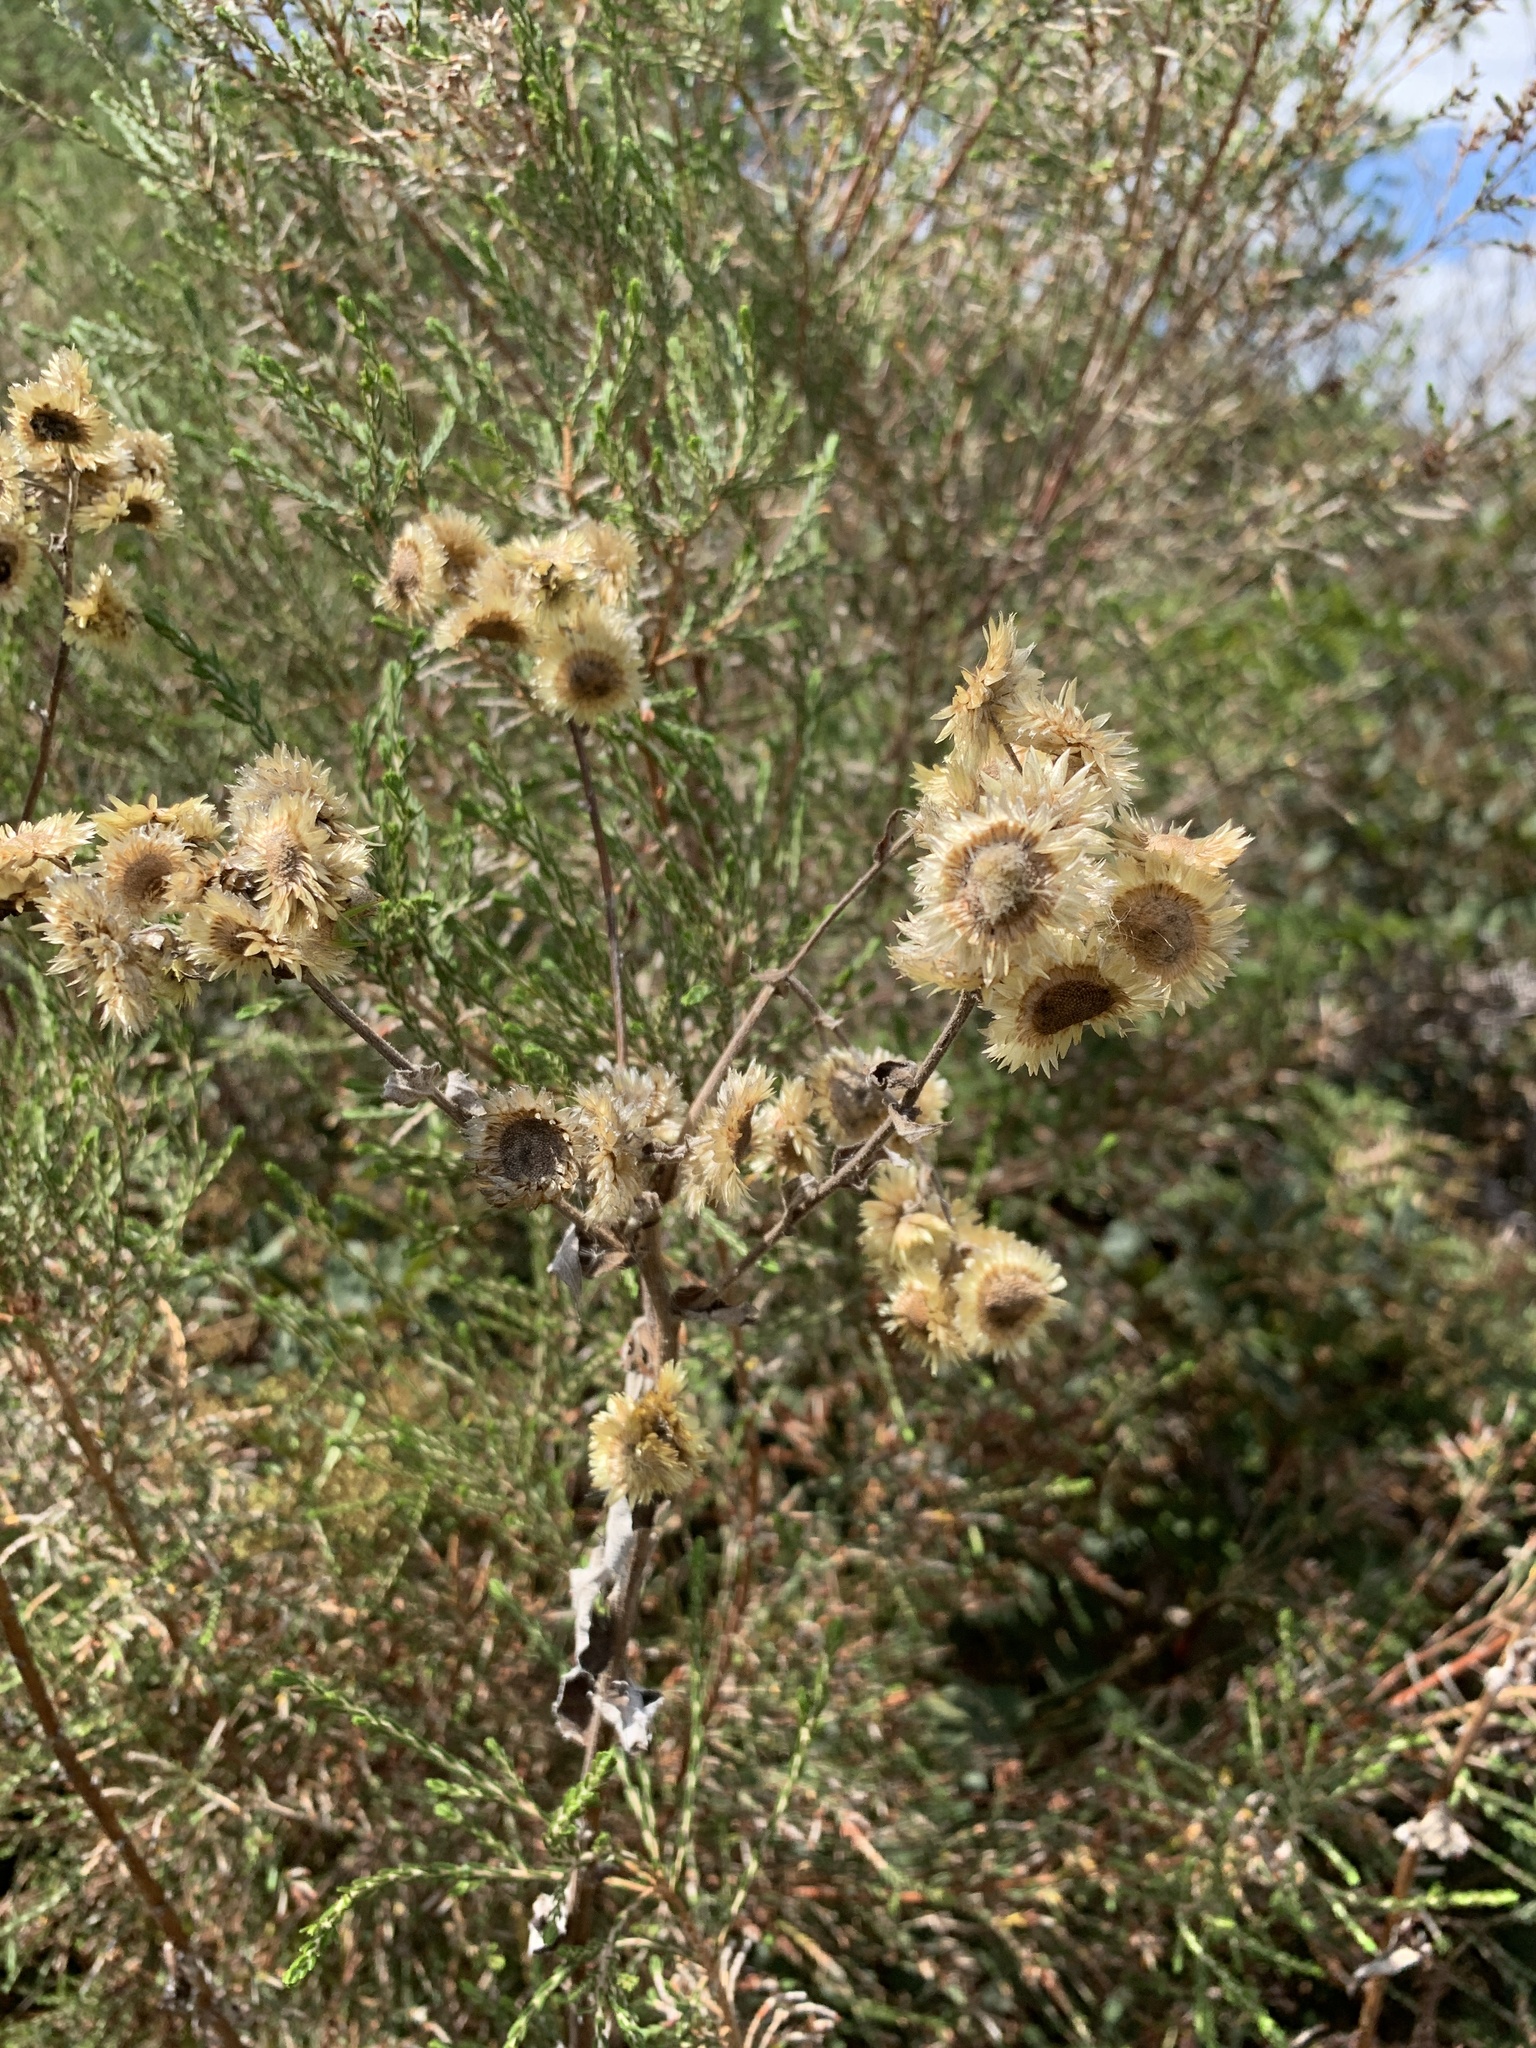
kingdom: Plantae
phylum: Tracheophyta
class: Magnoliopsida
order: Asterales
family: Asteraceae
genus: Helichrysum
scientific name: Helichrysum foetidum
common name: Stinking everlasting
